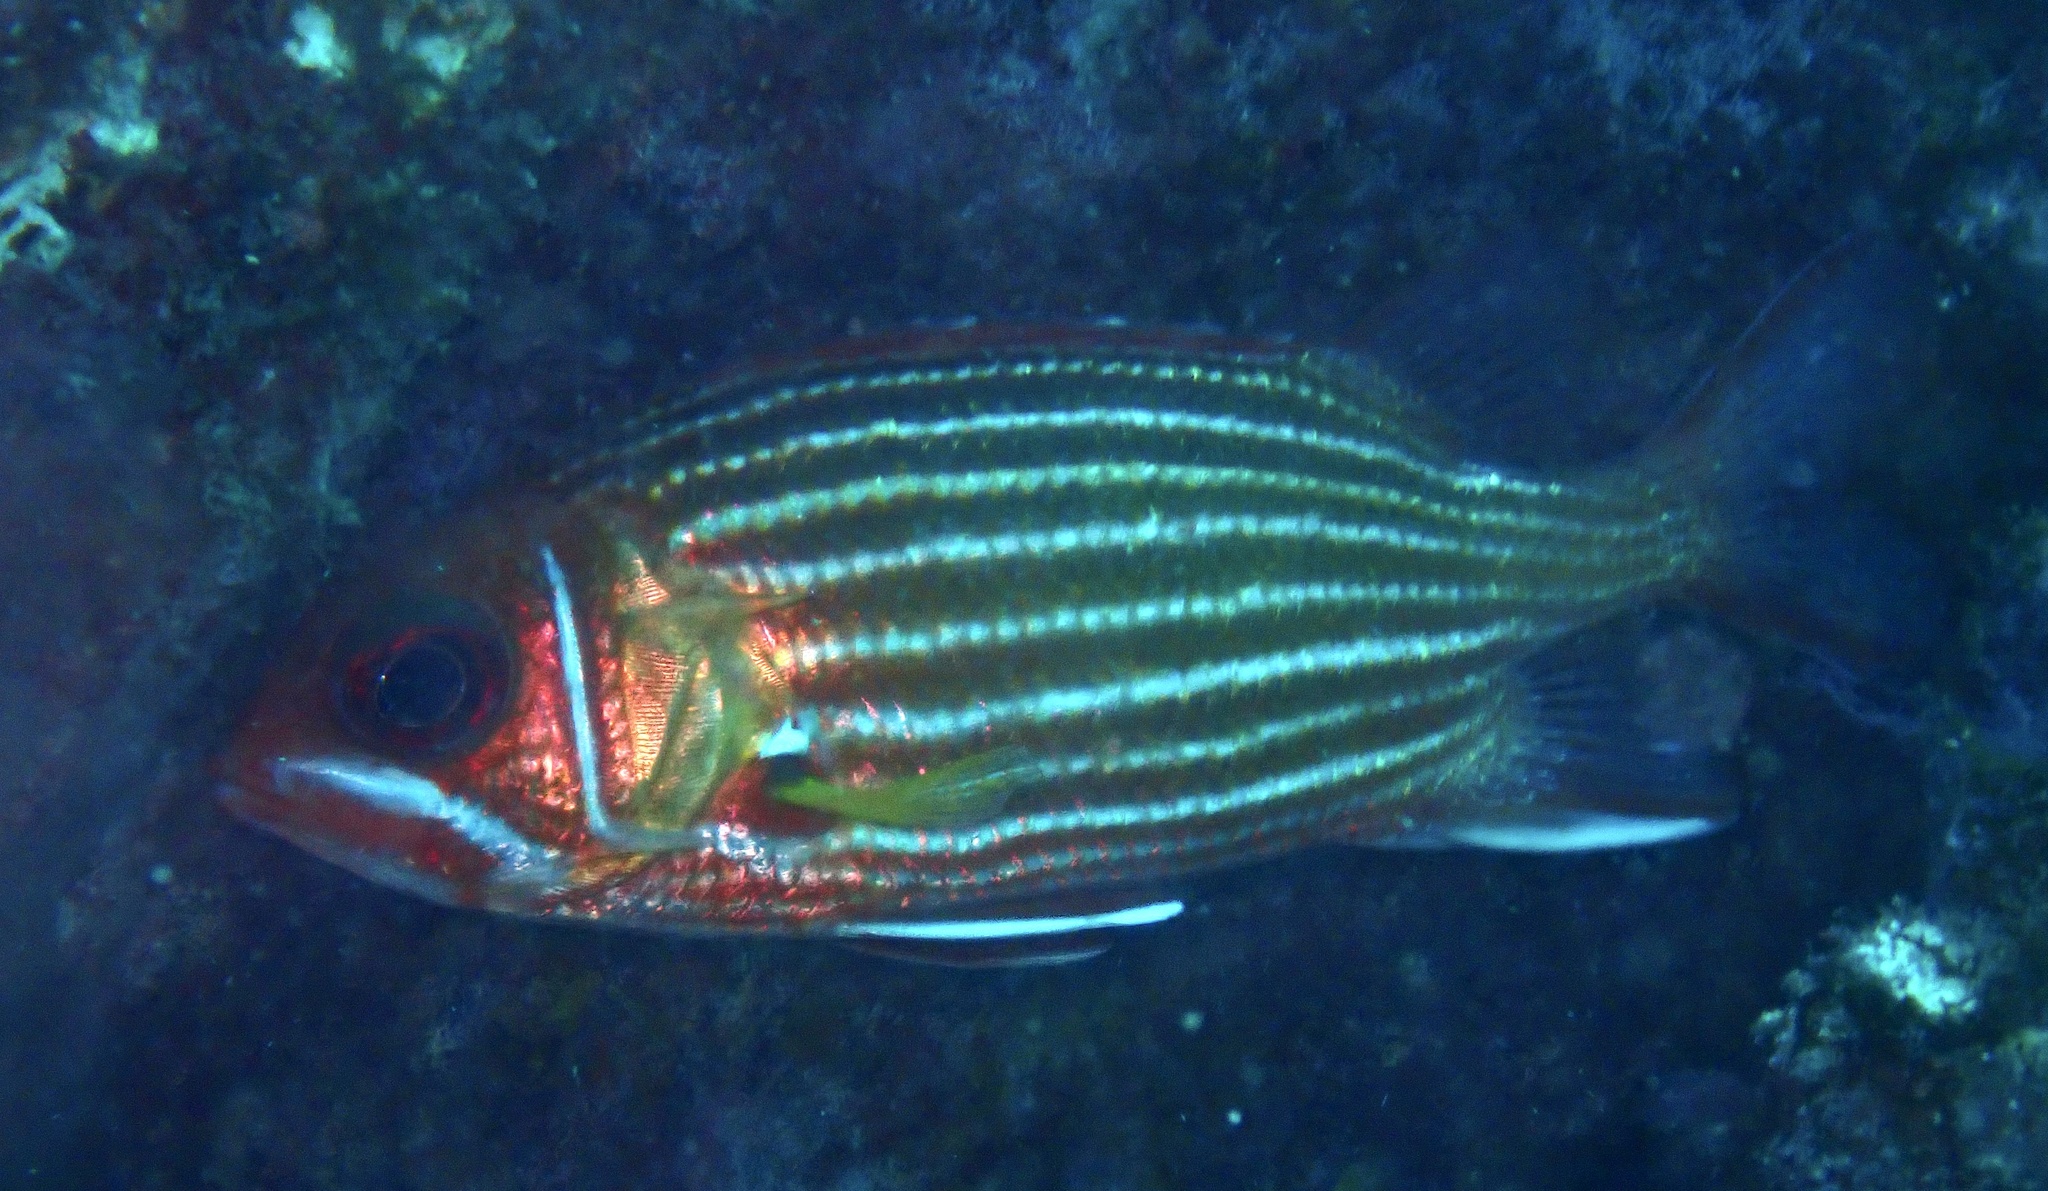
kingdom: Animalia
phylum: Chordata
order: Beryciformes
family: Holocentridae
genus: Sargocentron
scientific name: Sargocentron hastatum
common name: Red soldierfish
